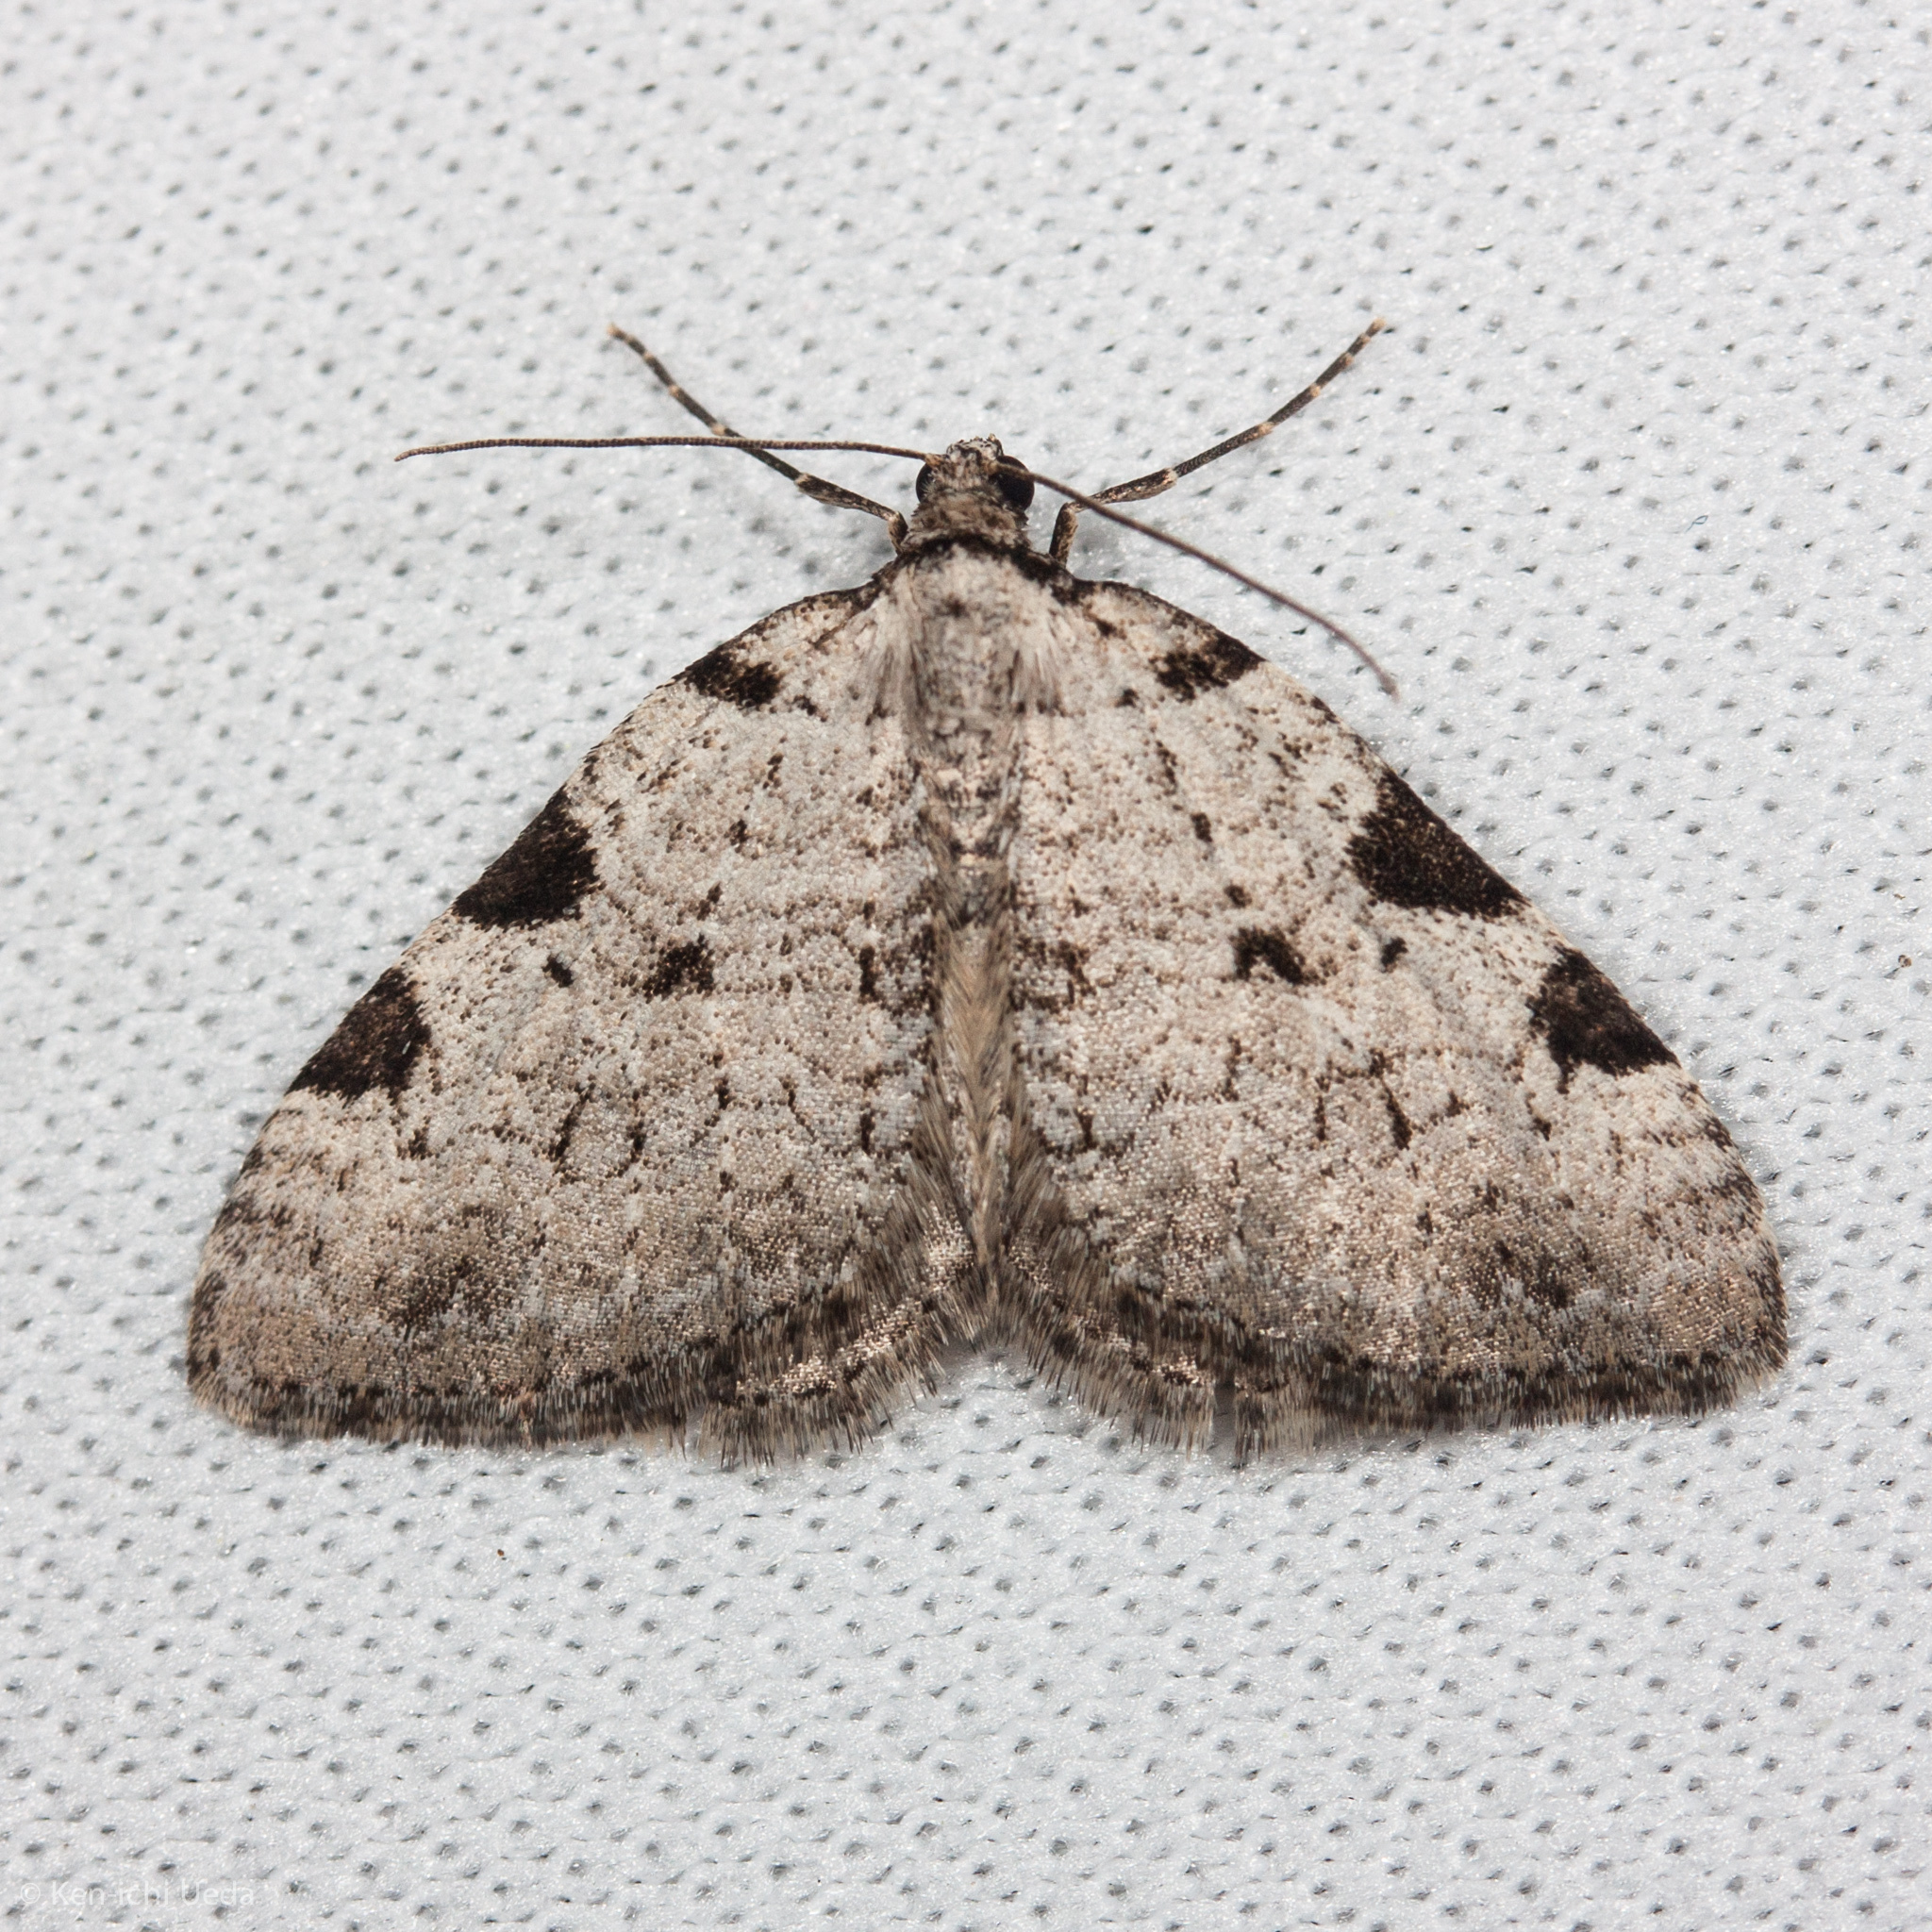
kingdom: Animalia
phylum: Arthropoda
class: Insecta
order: Lepidoptera
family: Geometridae
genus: Perizoma
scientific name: Perizoma costiguttata
